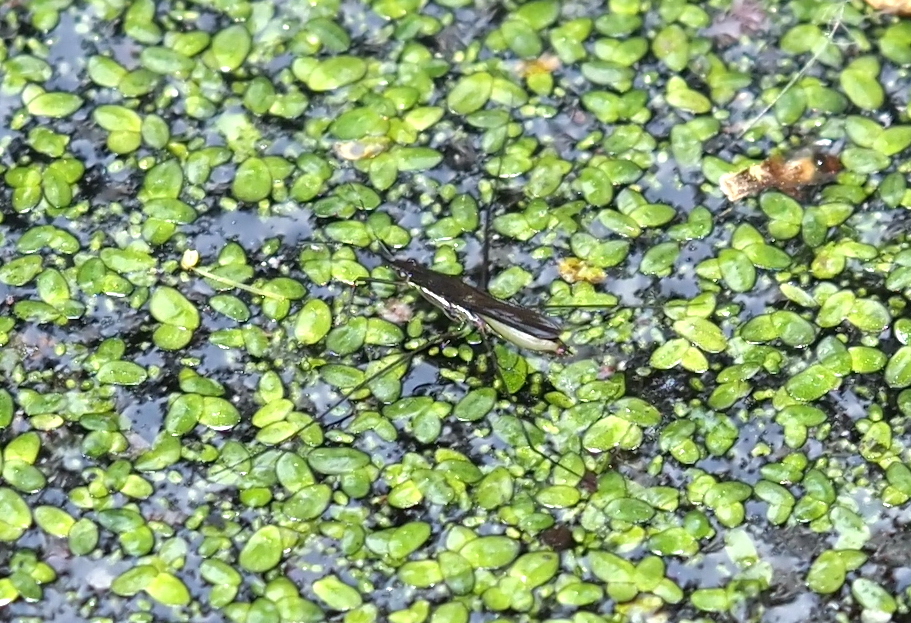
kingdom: Animalia
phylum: Arthropoda
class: Insecta
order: Hemiptera
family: Gerridae
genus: Limnoporus
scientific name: Limnoporus canaliculatus
